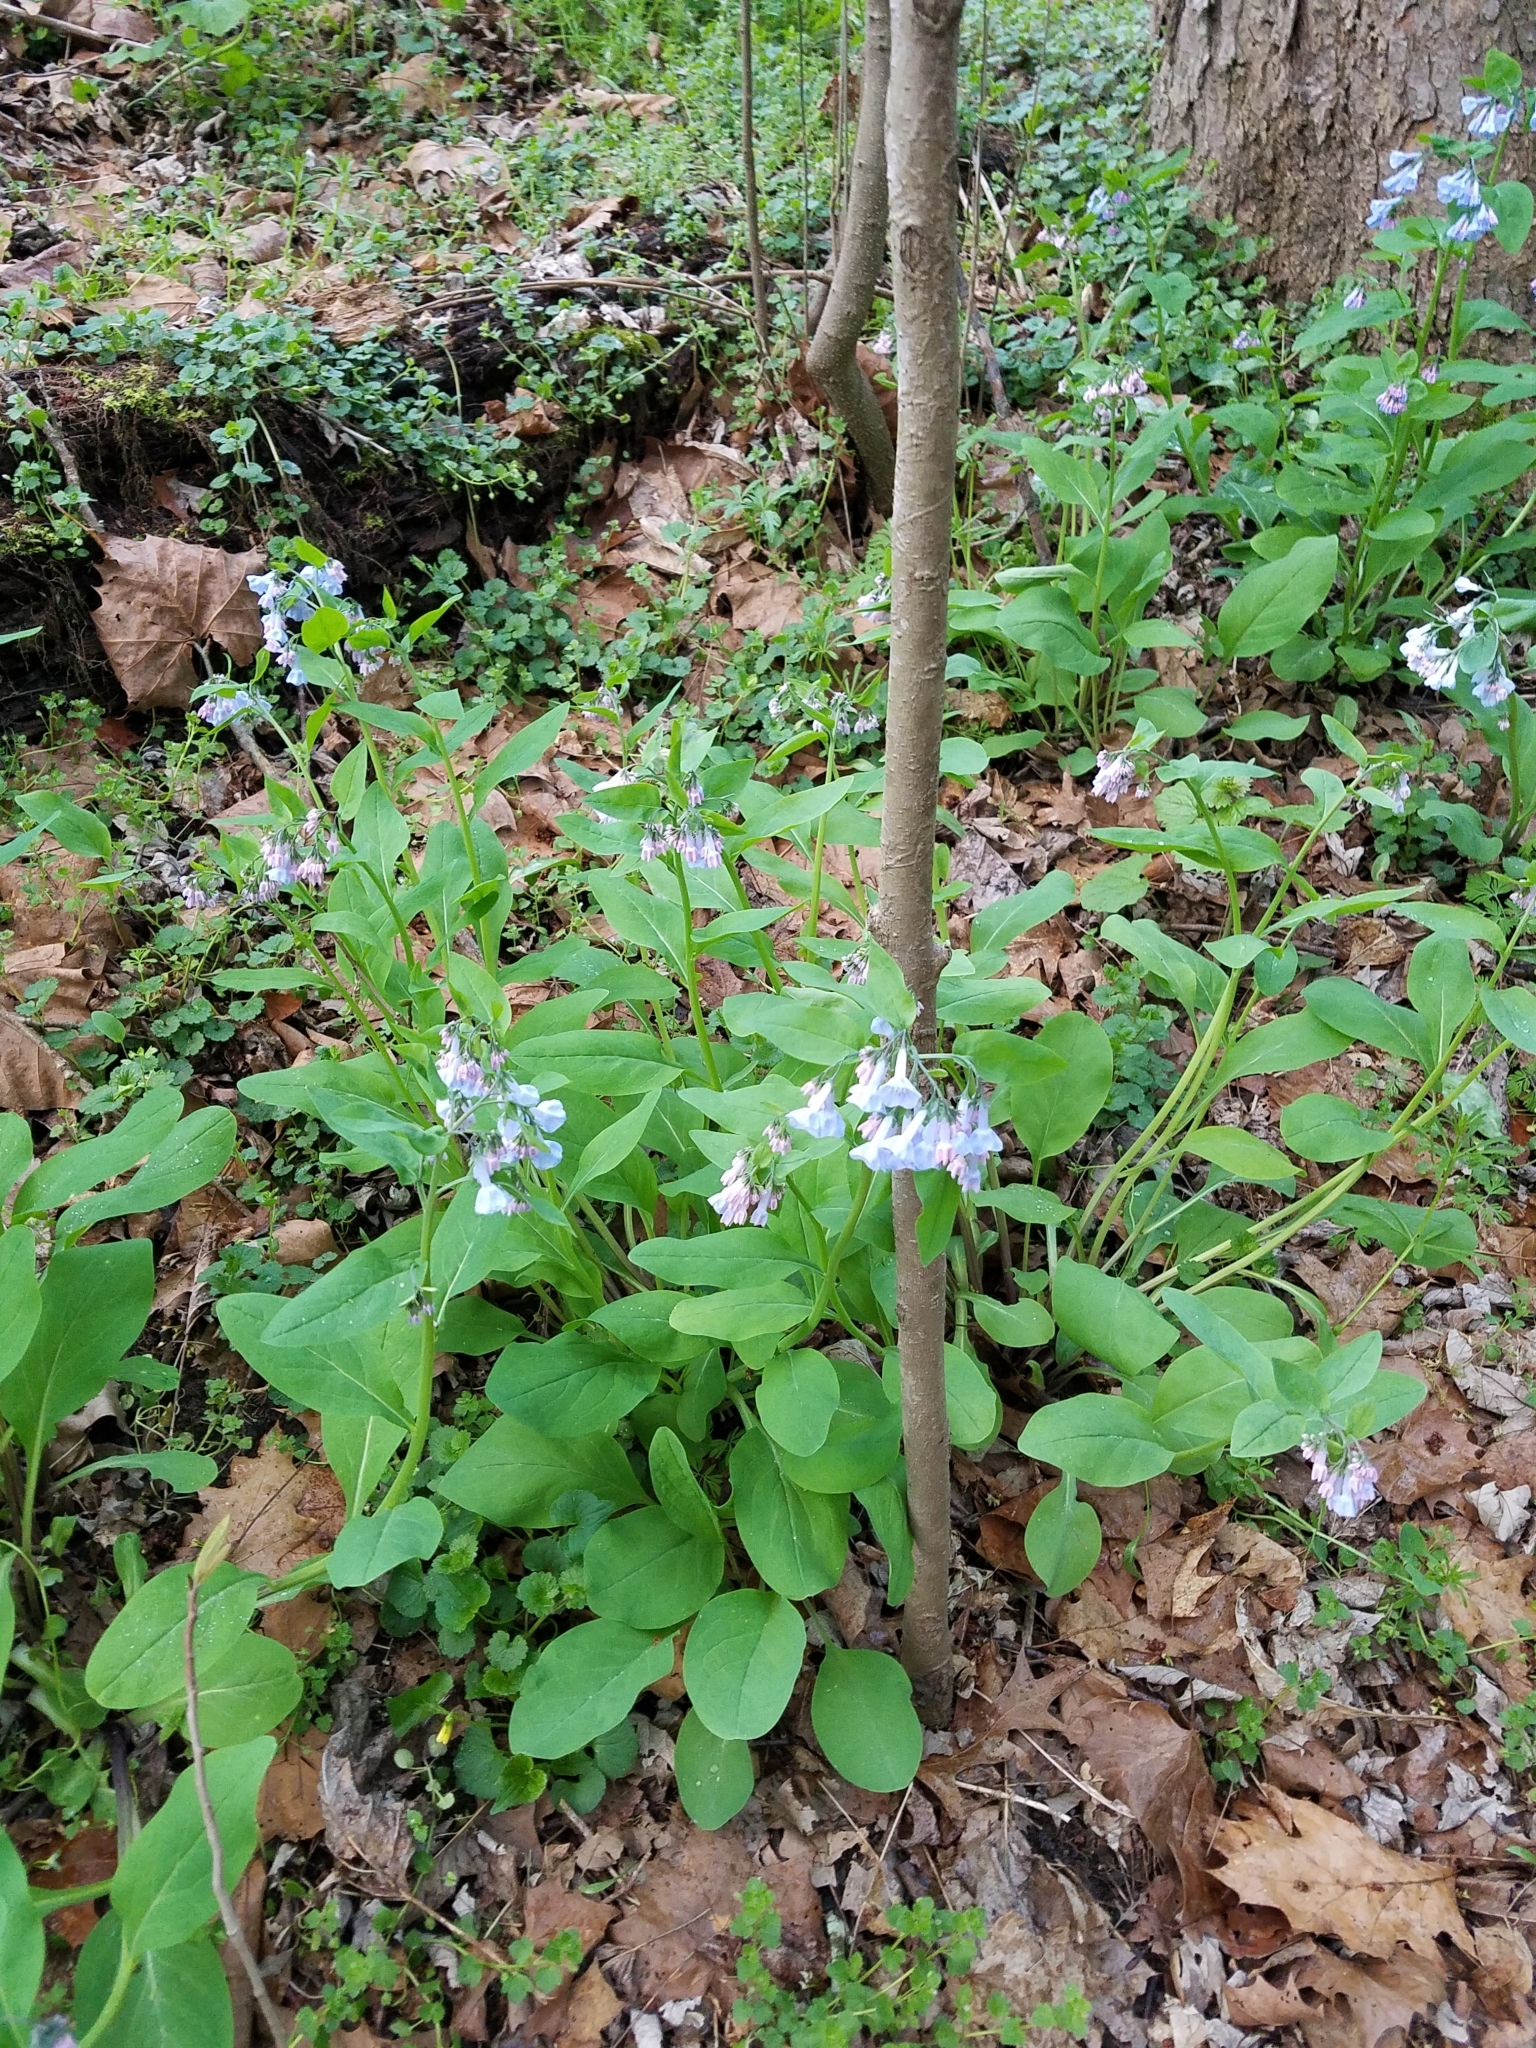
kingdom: Plantae
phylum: Tracheophyta
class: Magnoliopsida
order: Boraginales
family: Boraginaceae
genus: Mertensia
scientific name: Mertensia virginica
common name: Virginia bluebells
